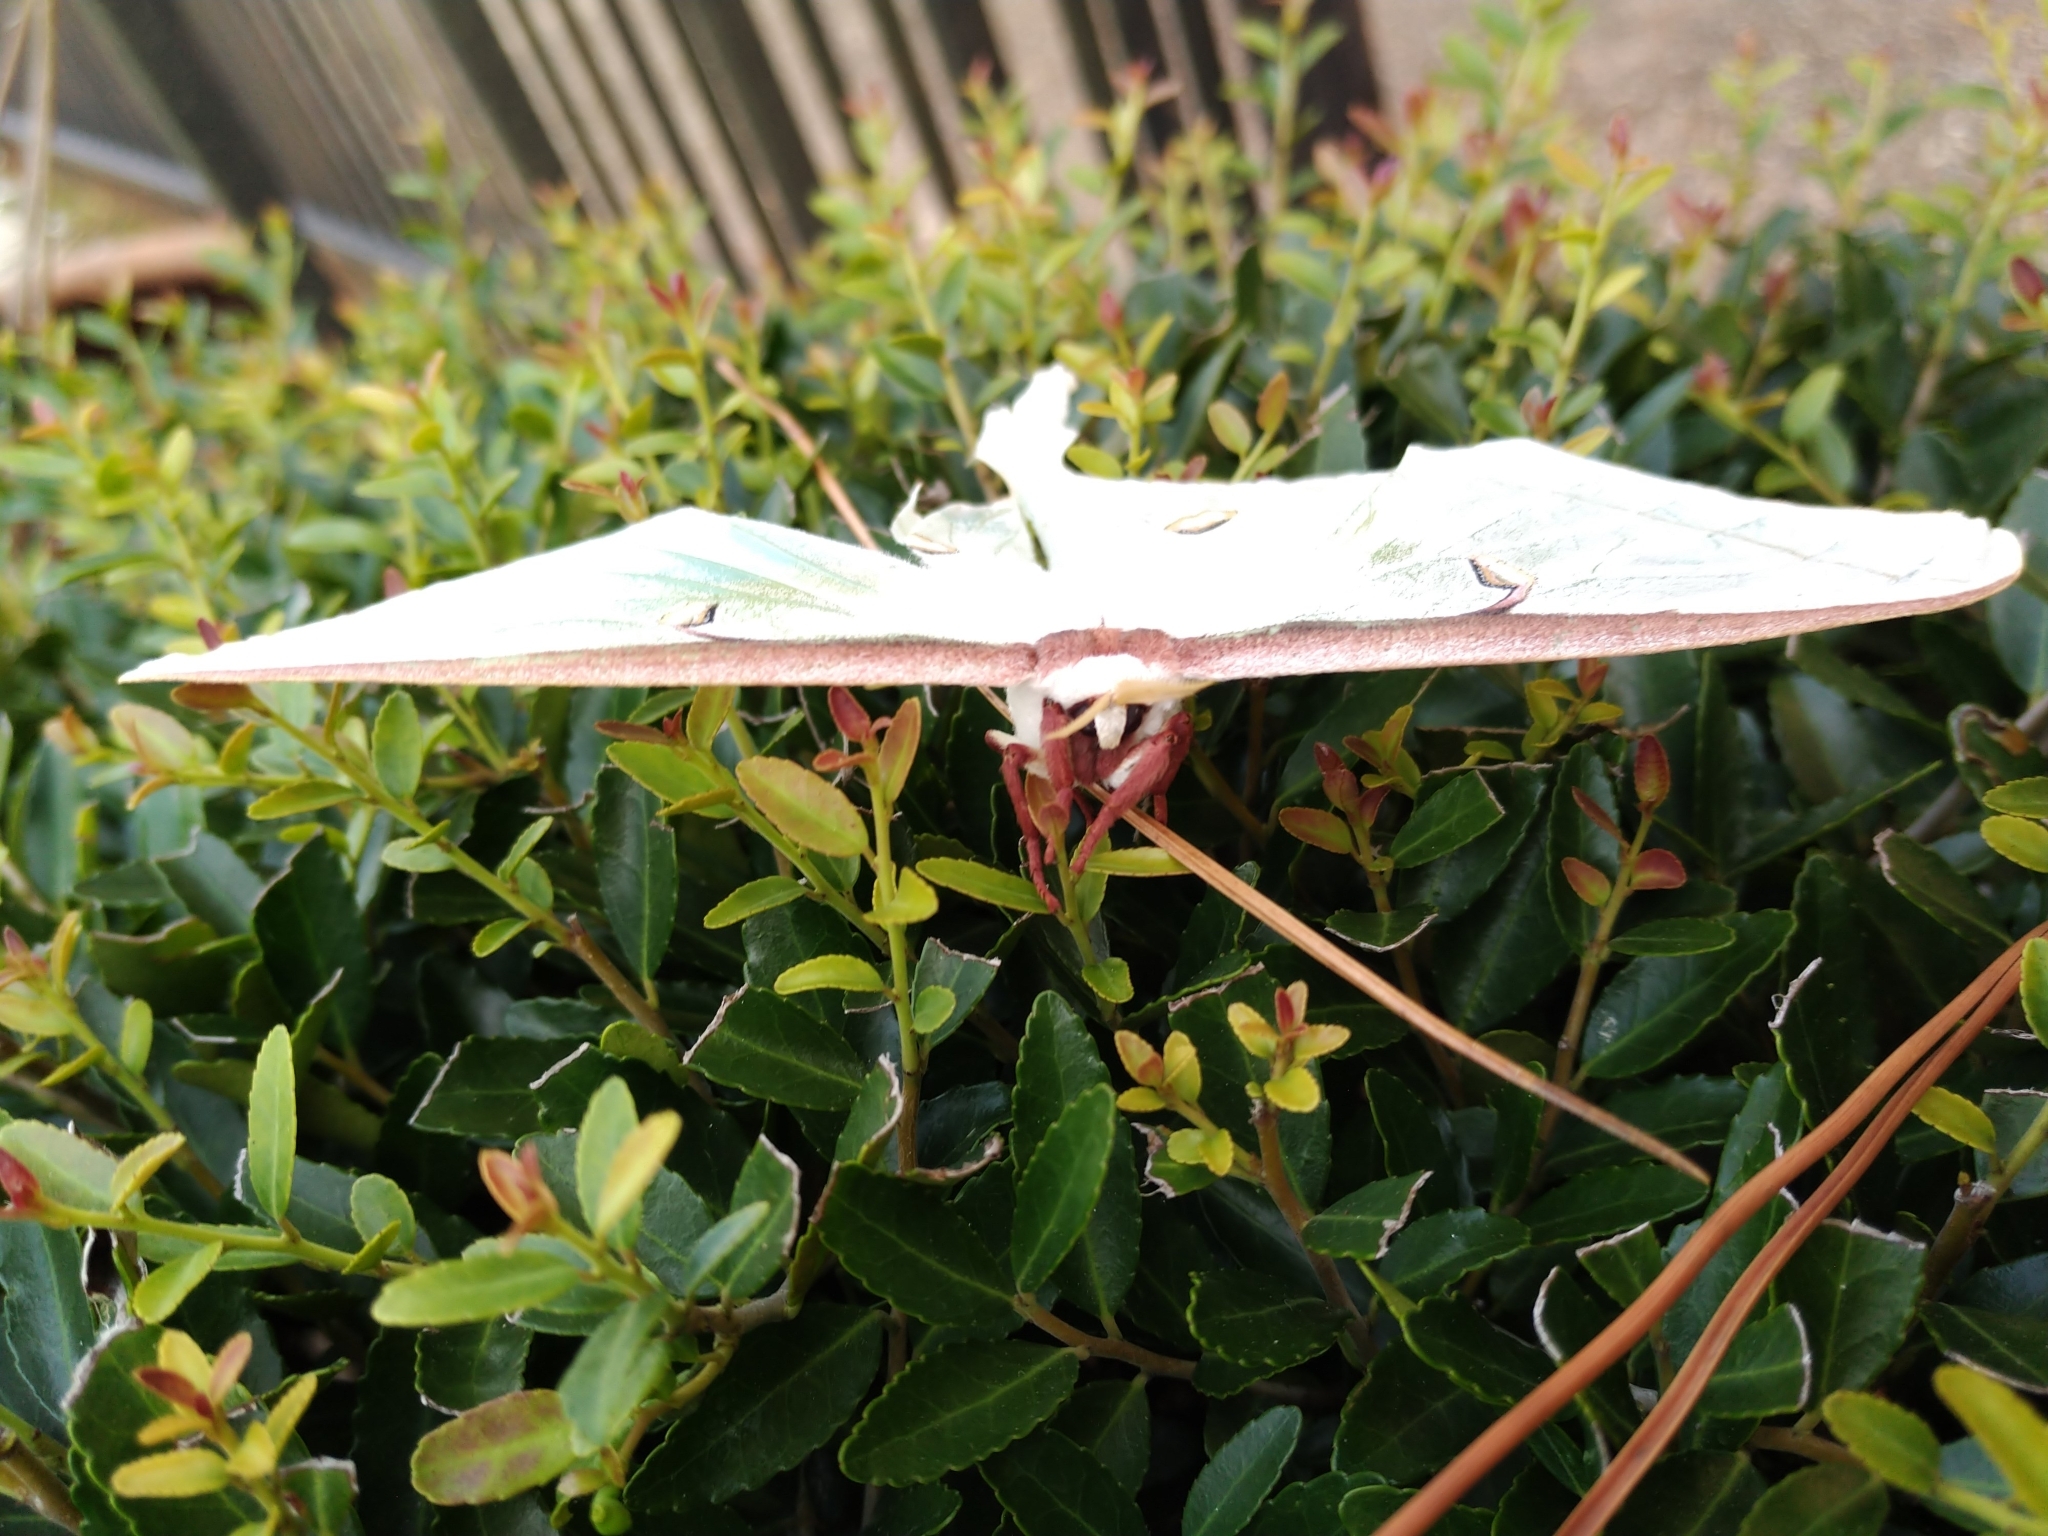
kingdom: Animalia
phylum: Arthropoda
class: Insecta
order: Lepidoptera
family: Saturniidae
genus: Actias
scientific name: Actias luna
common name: Luna moth
